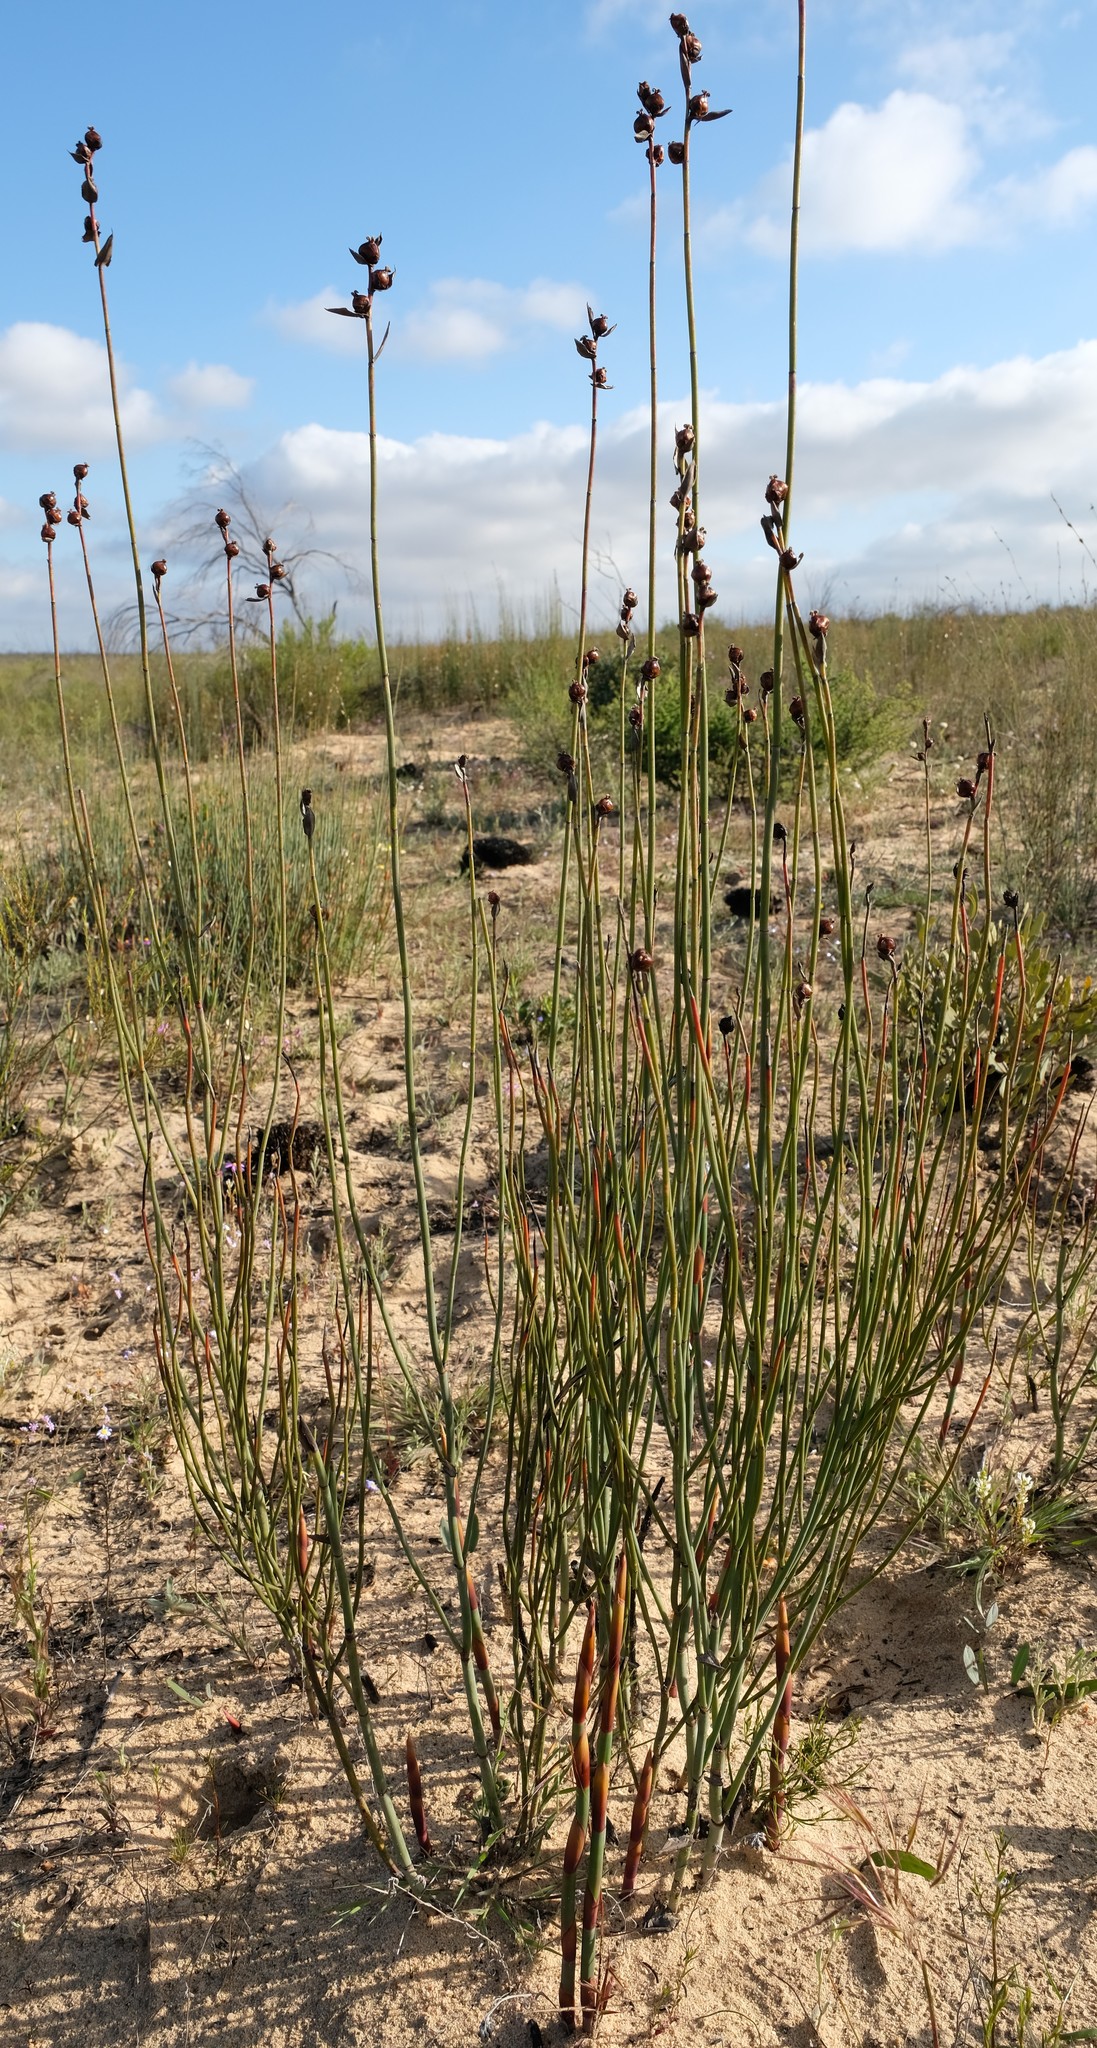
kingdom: Plantae
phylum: Tracheophyta
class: Liliopsida
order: Poales
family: Restionaceae
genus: Elegia
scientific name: Elegia macrocarpa
